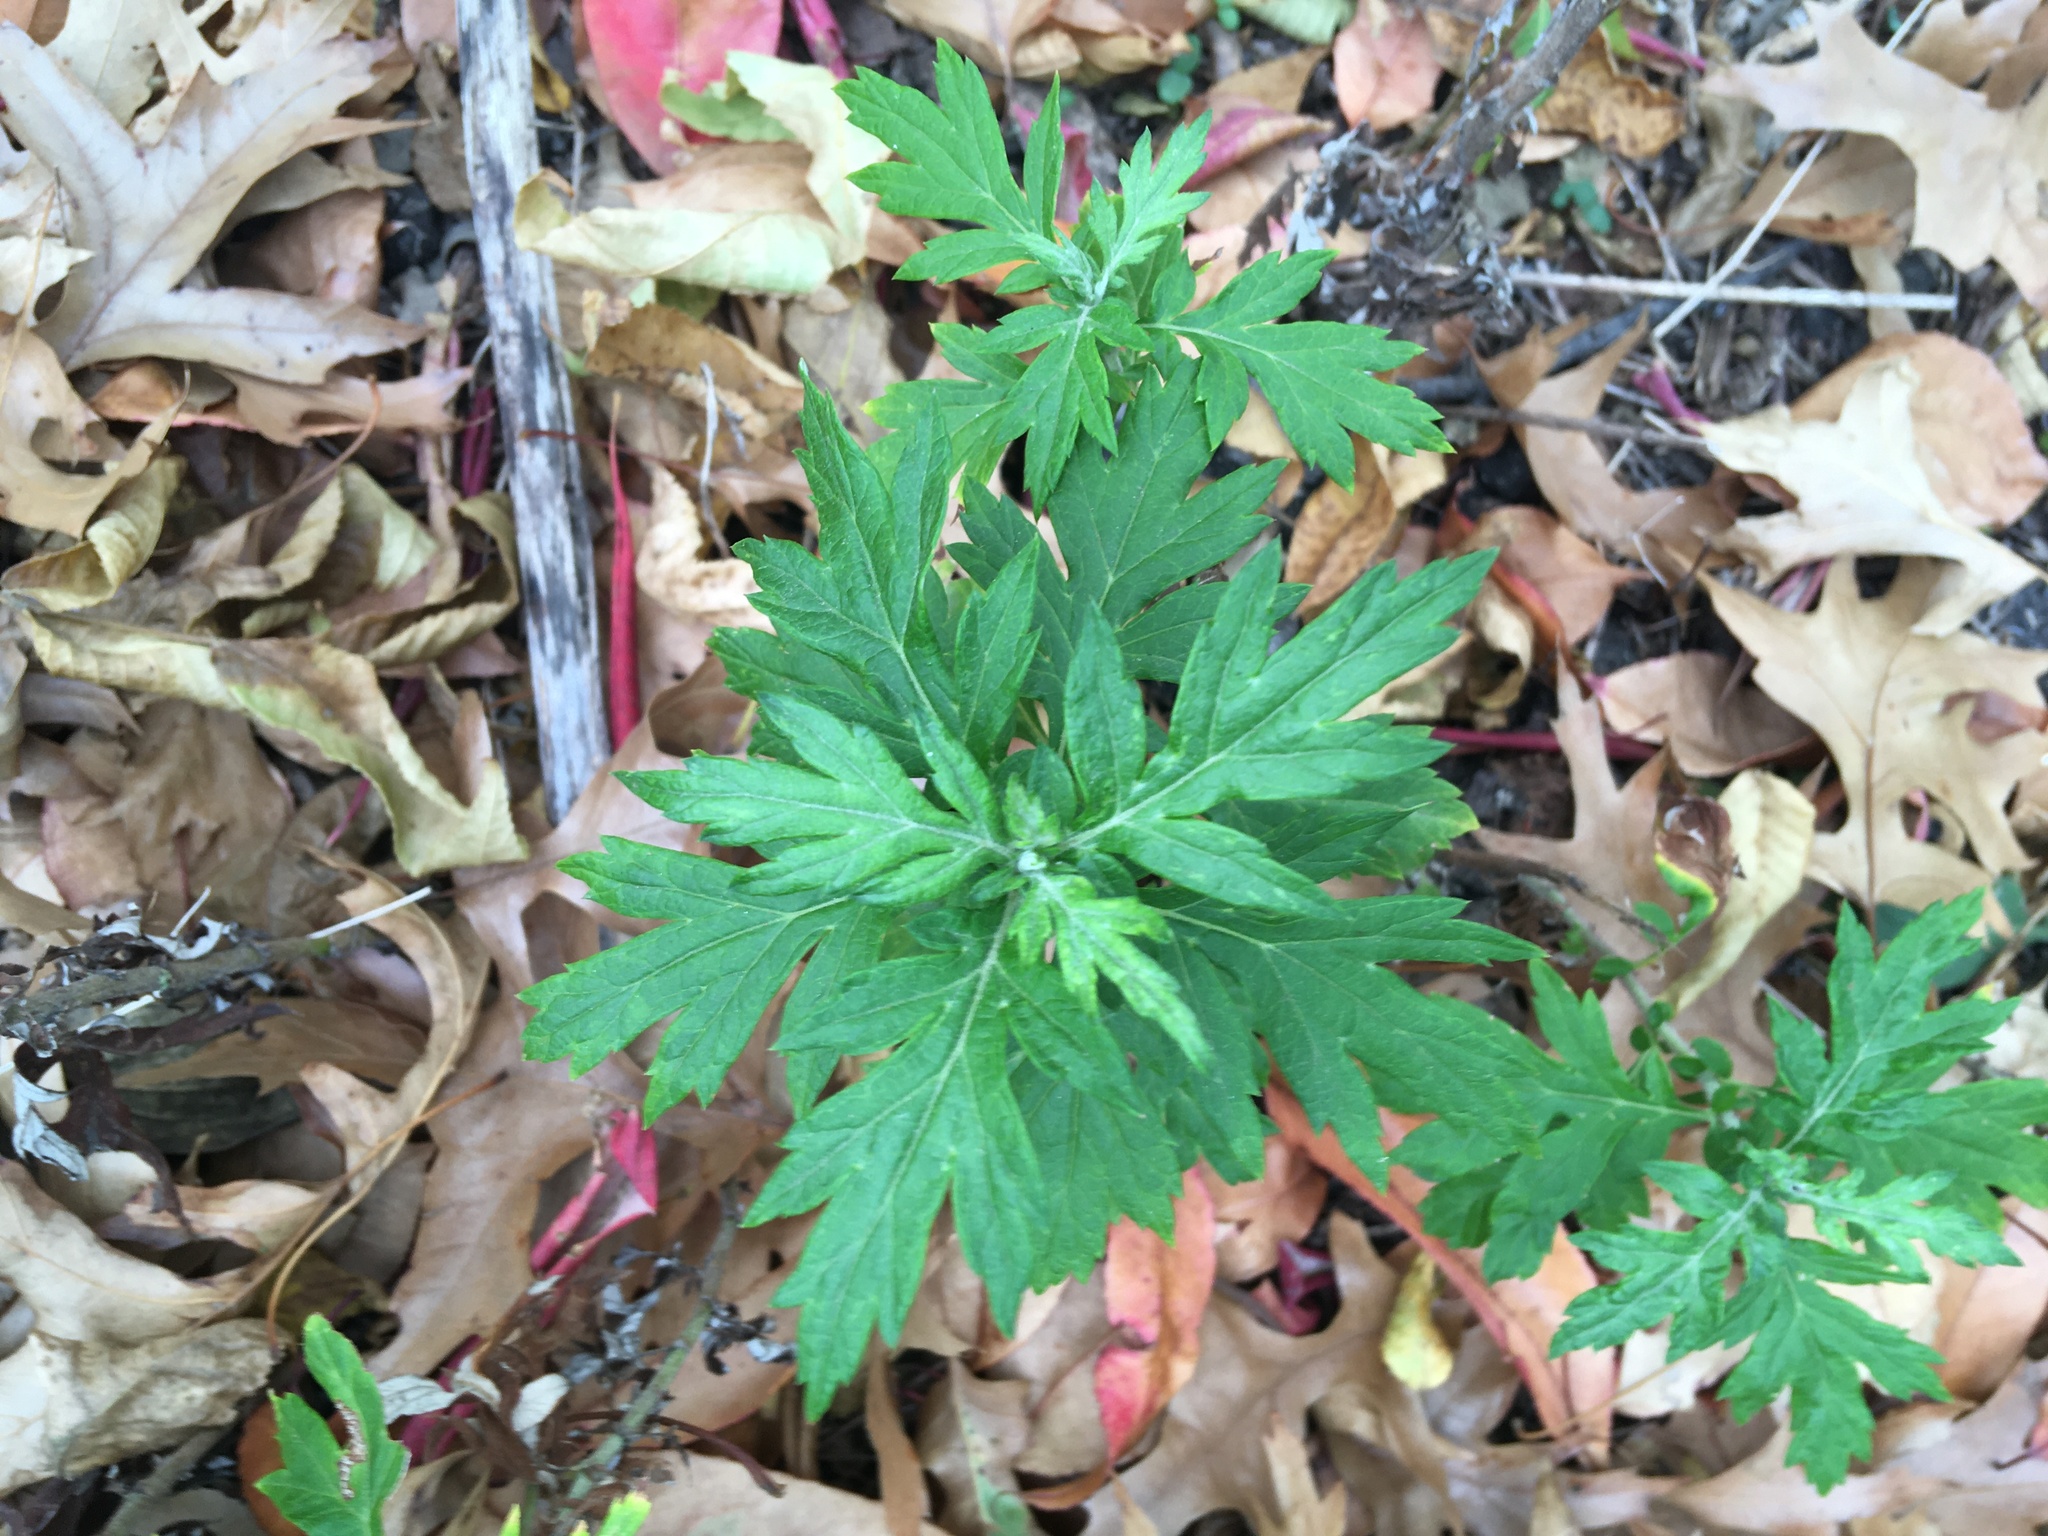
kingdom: Plantae
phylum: Tracheophyta
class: Magnoliopsida
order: Asterales
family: Asteraceae
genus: Artemisia
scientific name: Artemisia vulgaris
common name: Mugwort
